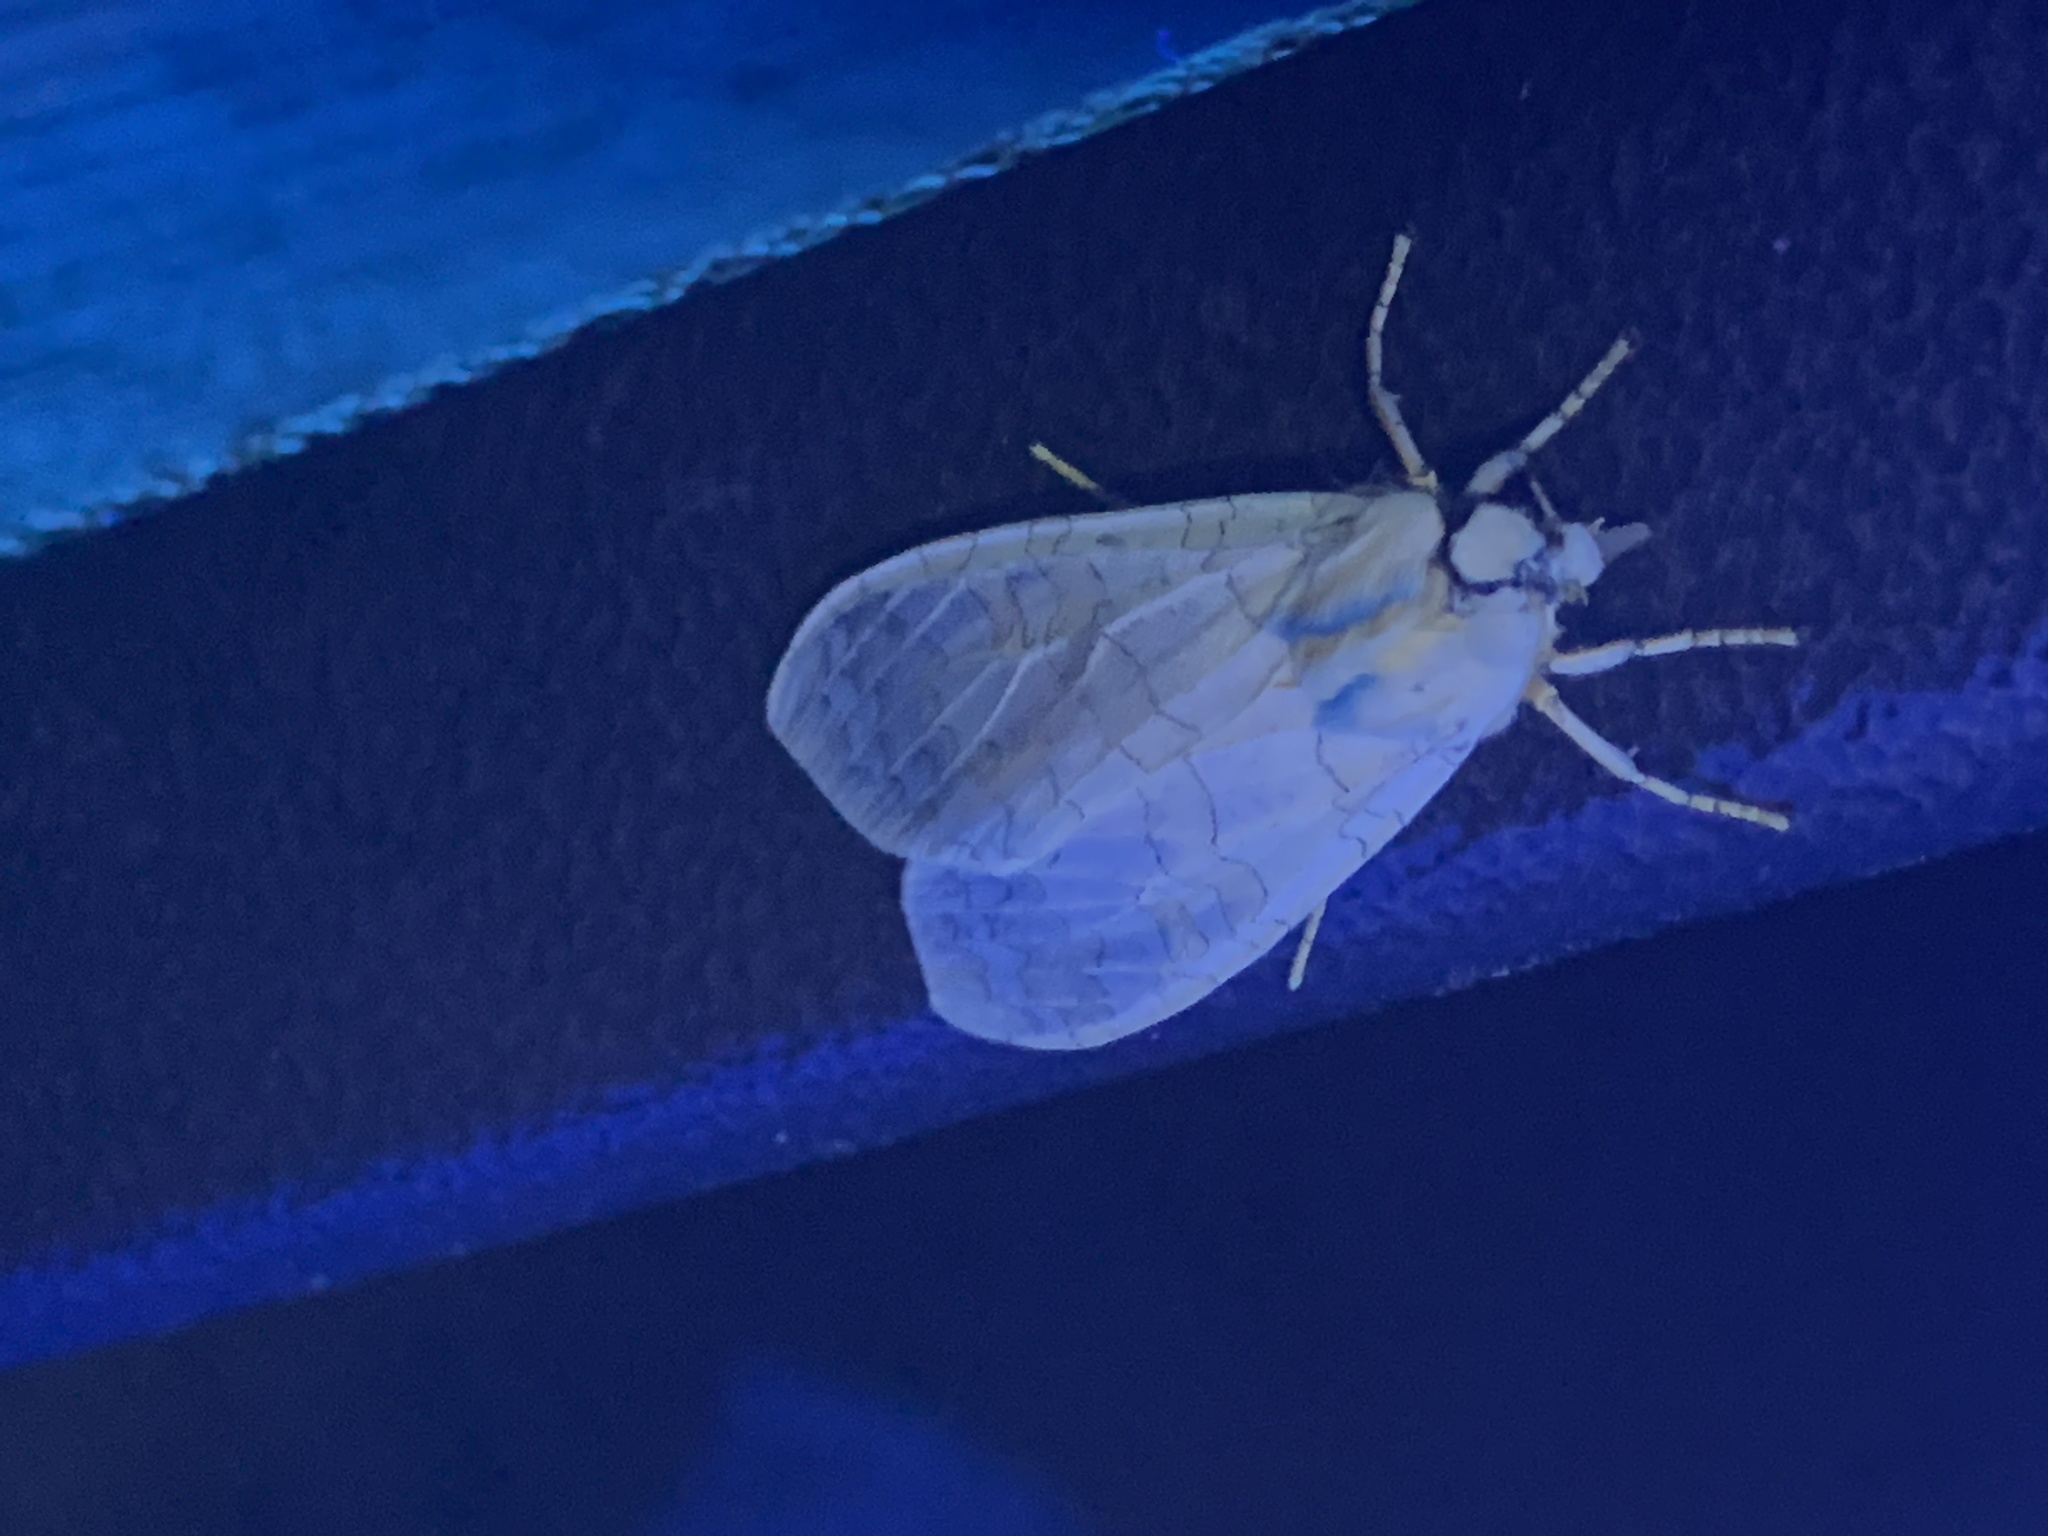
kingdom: Animalia
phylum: Arthropoda
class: Insecta
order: Lepidoptera
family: Erebidae
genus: Halysidota
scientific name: Halysidota
